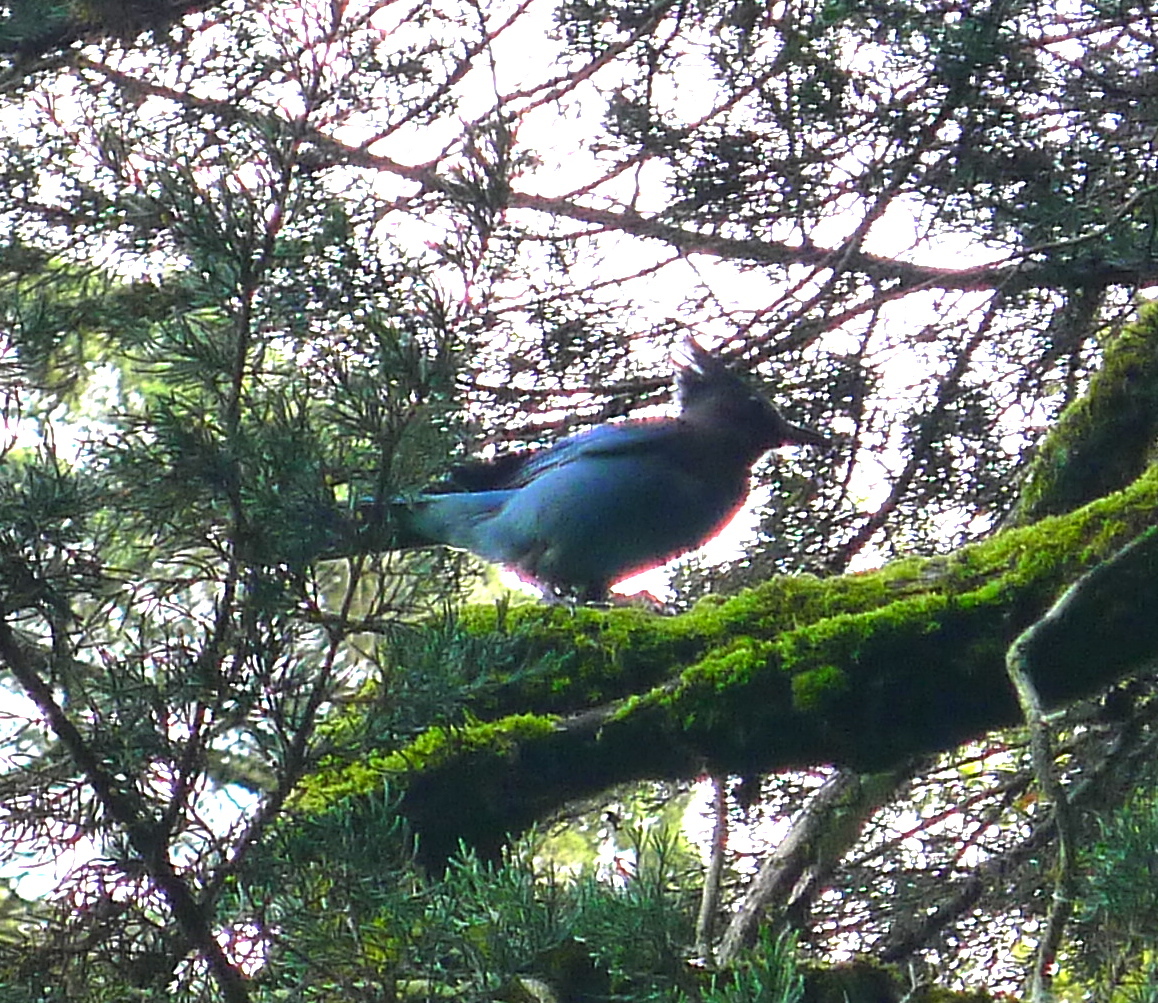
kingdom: Animalia
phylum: Chordata
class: Aves
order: Passeriformes
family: Corvidae
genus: Cyanocitta
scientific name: Cyanocitta stelleri
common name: Steller's jay
